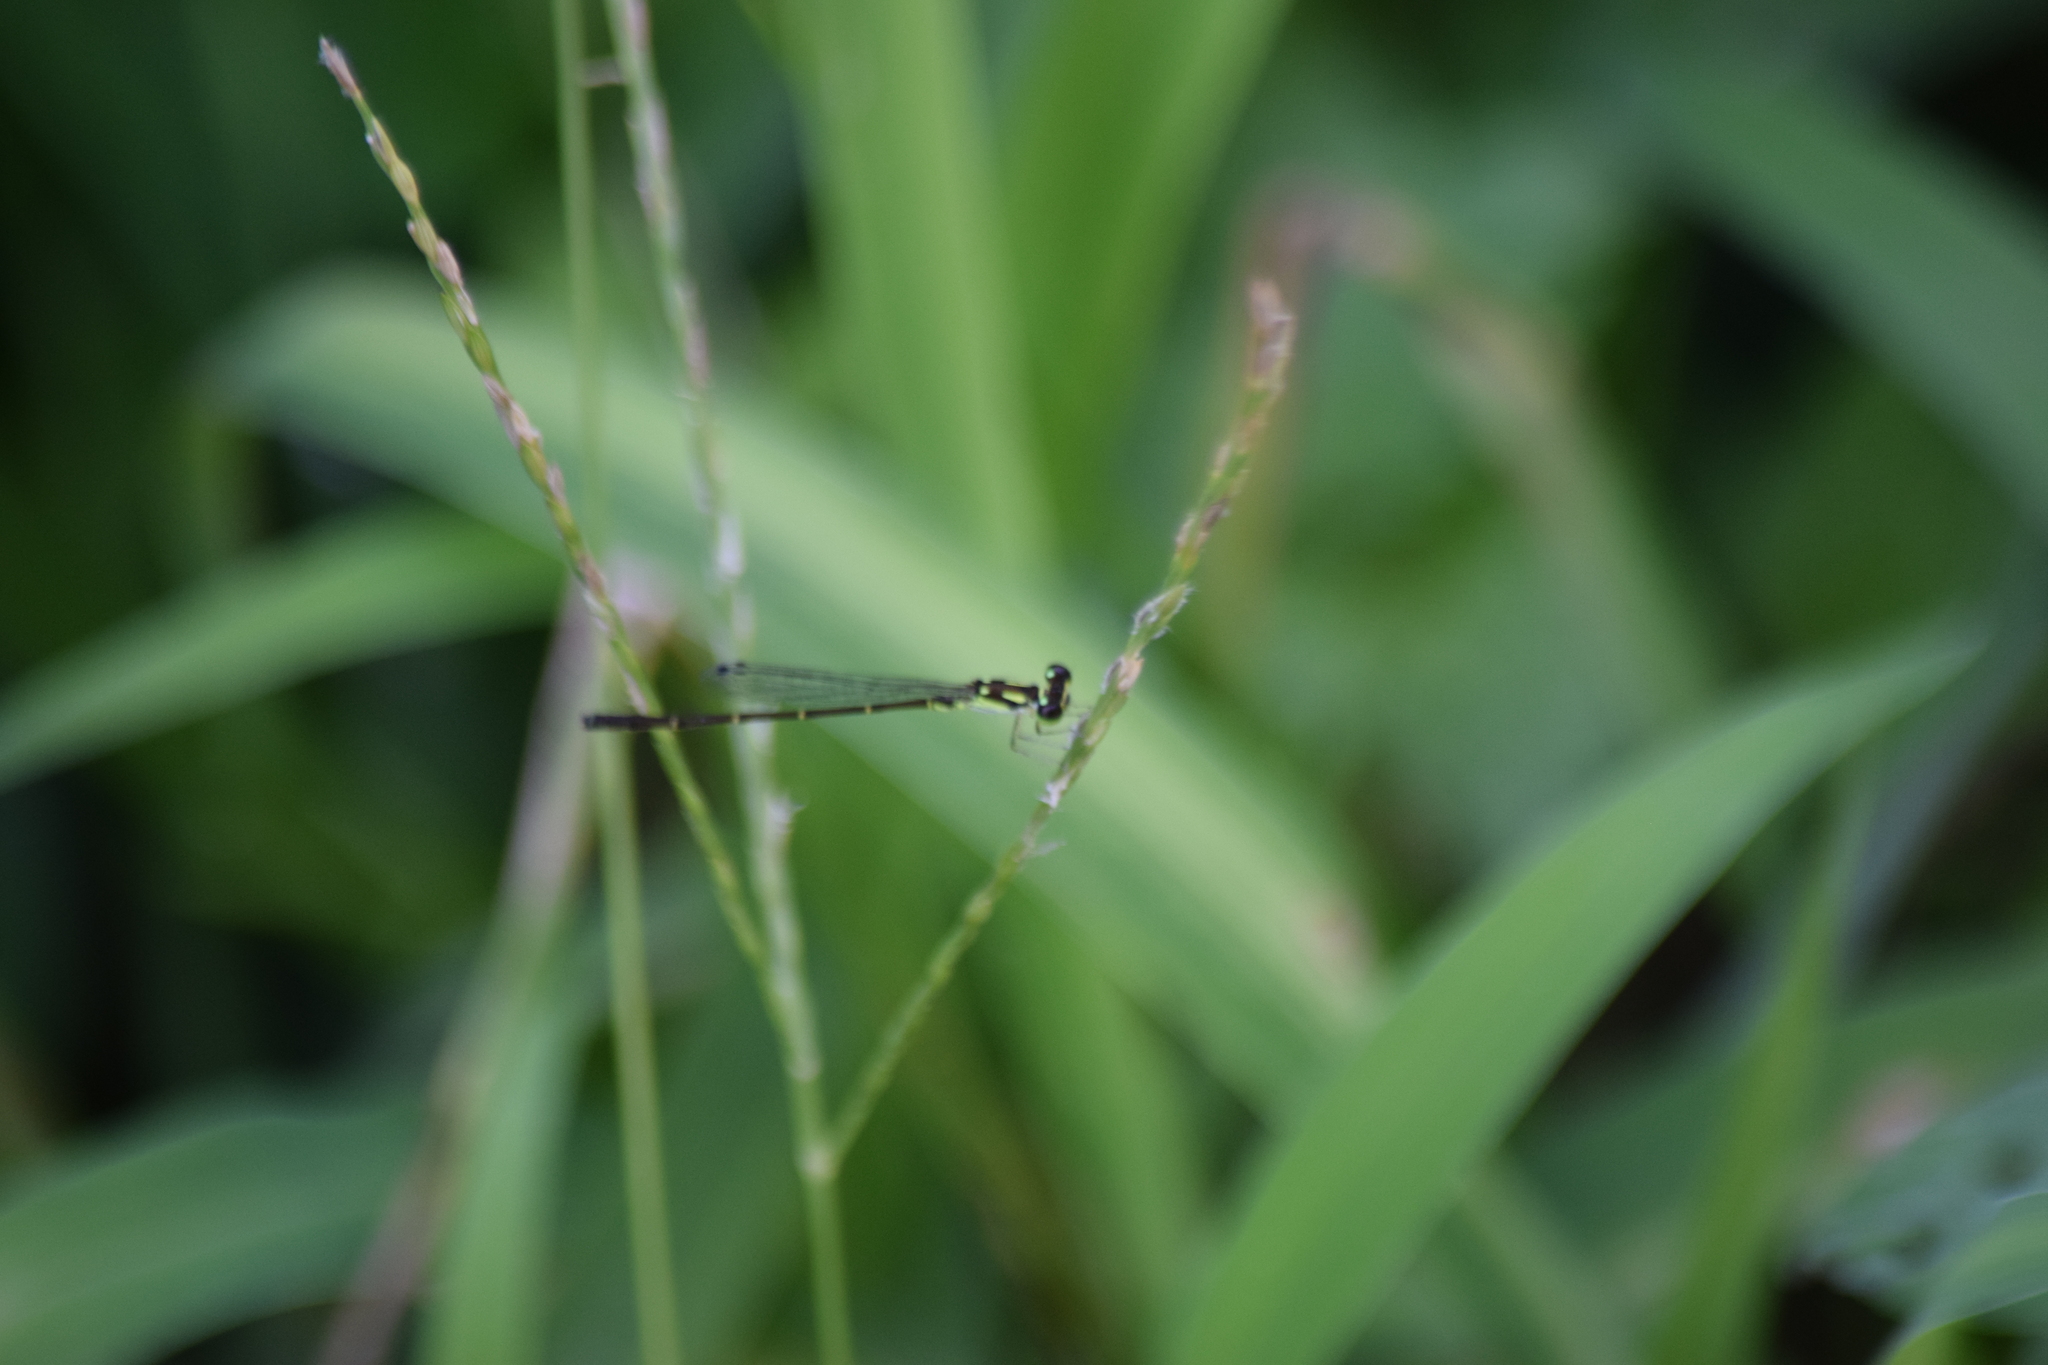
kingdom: Animalia
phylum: Arthropoda
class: Insecta
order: Odonata
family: Coenagrionidae
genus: Ischnura
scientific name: Ischnura posita
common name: Fragile forktail
